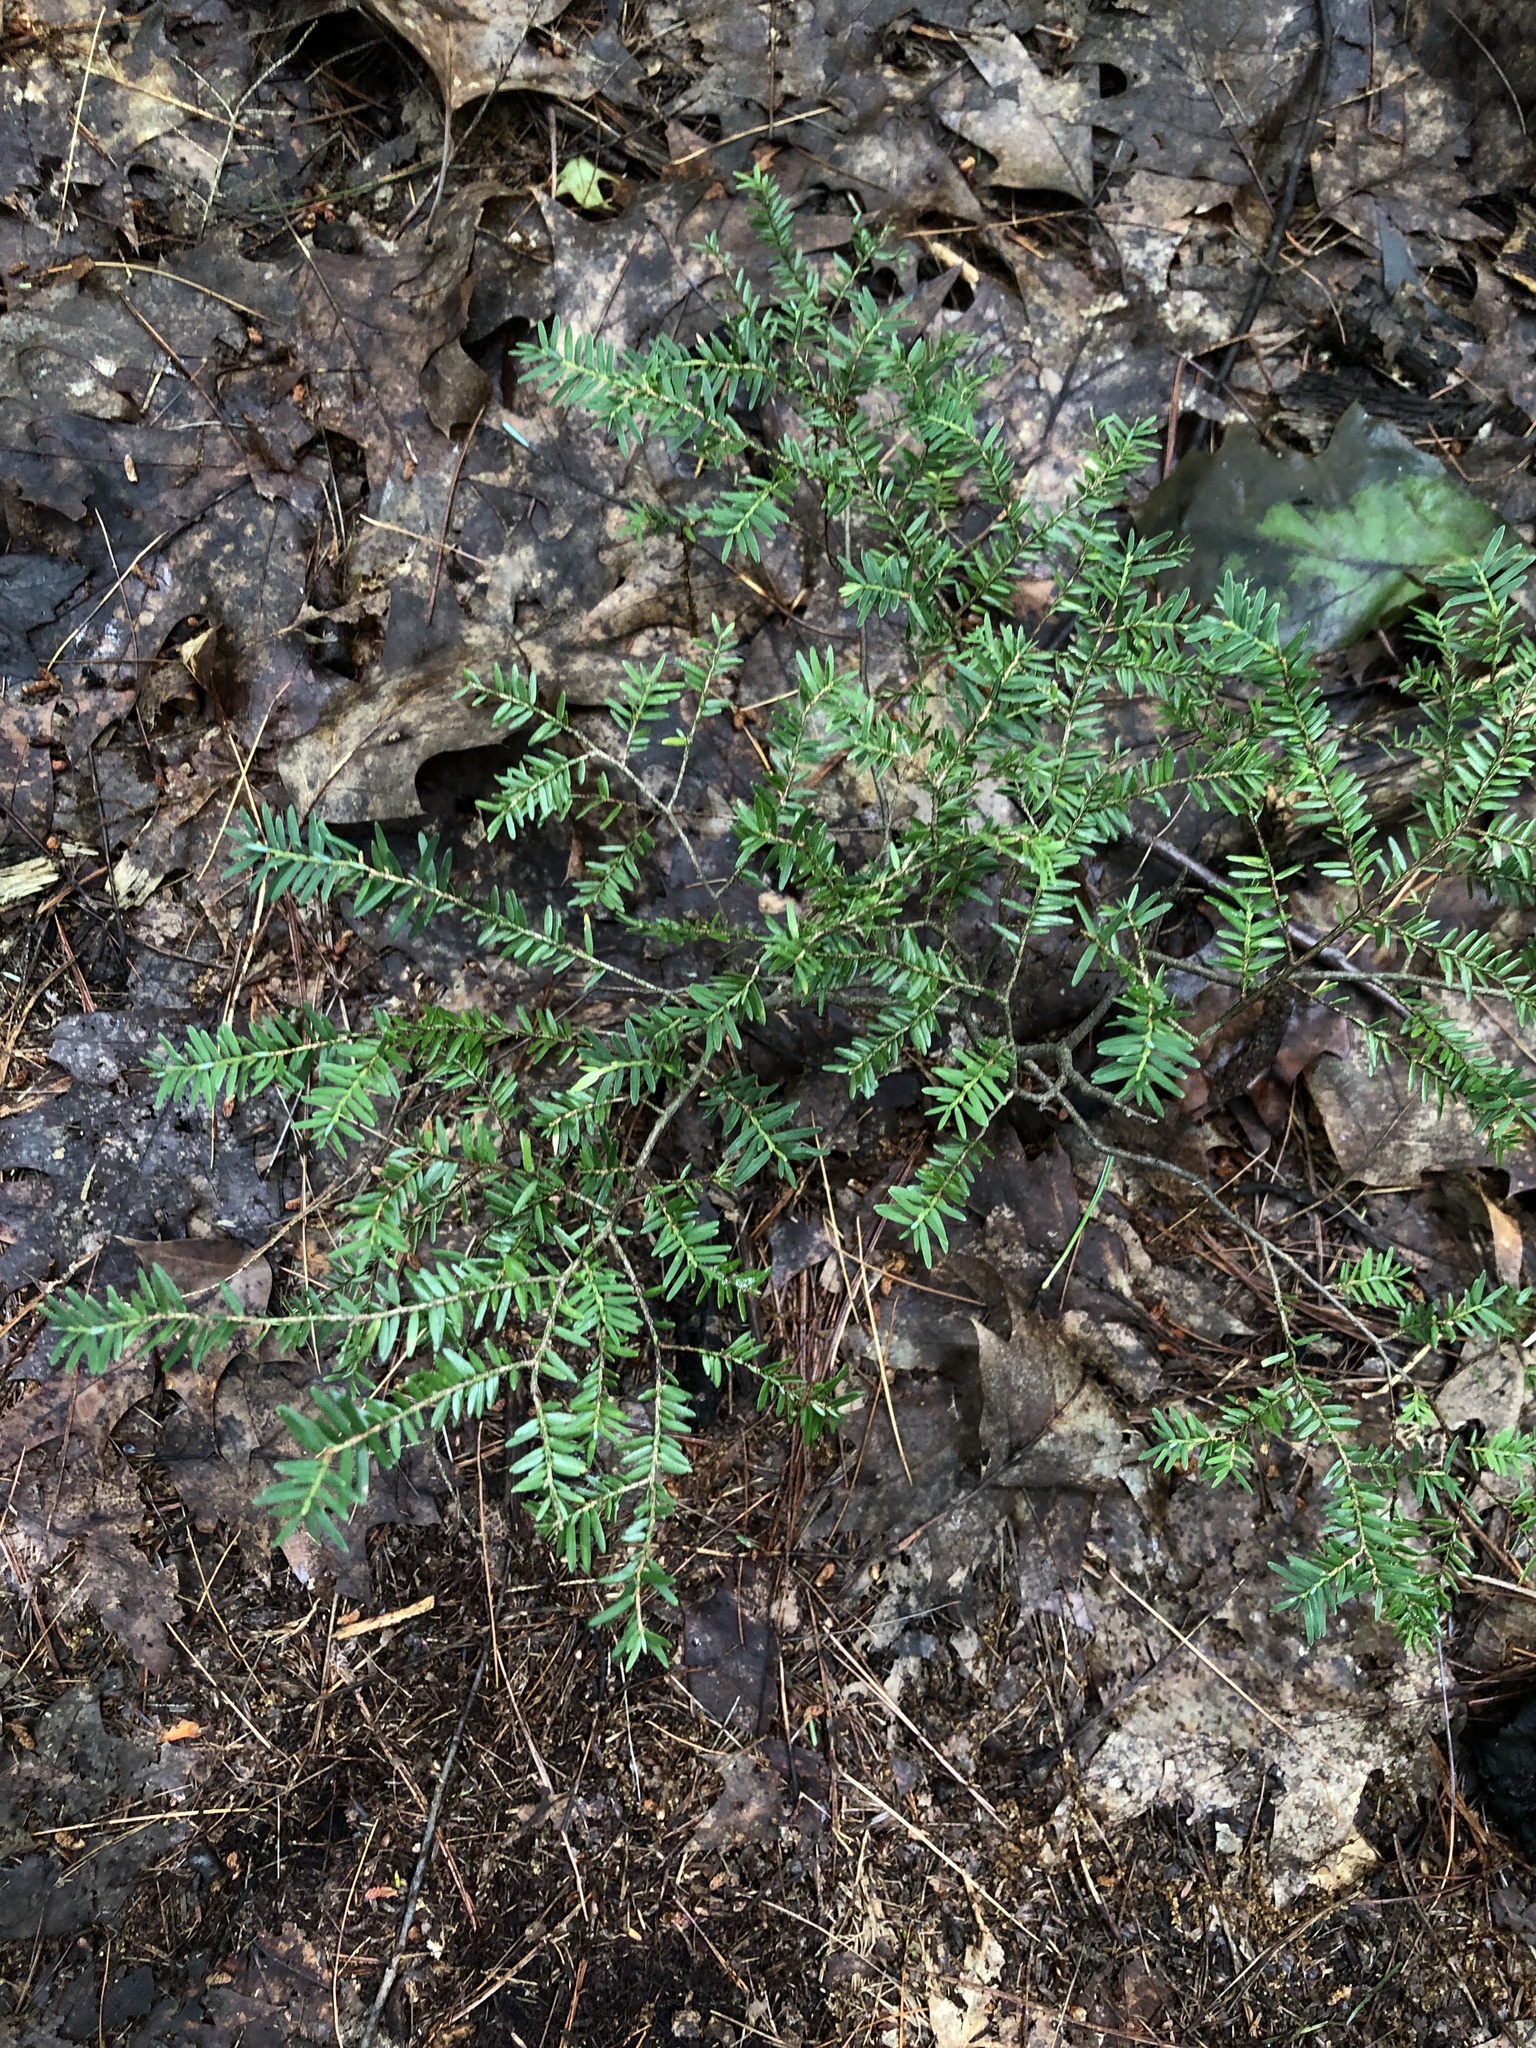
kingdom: Plantae
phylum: Tracheophyta
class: Pinopsida
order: Pinales
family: Pinaceae
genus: Tsuga
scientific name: Tsuga canadensis
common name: Eastern hemlock
